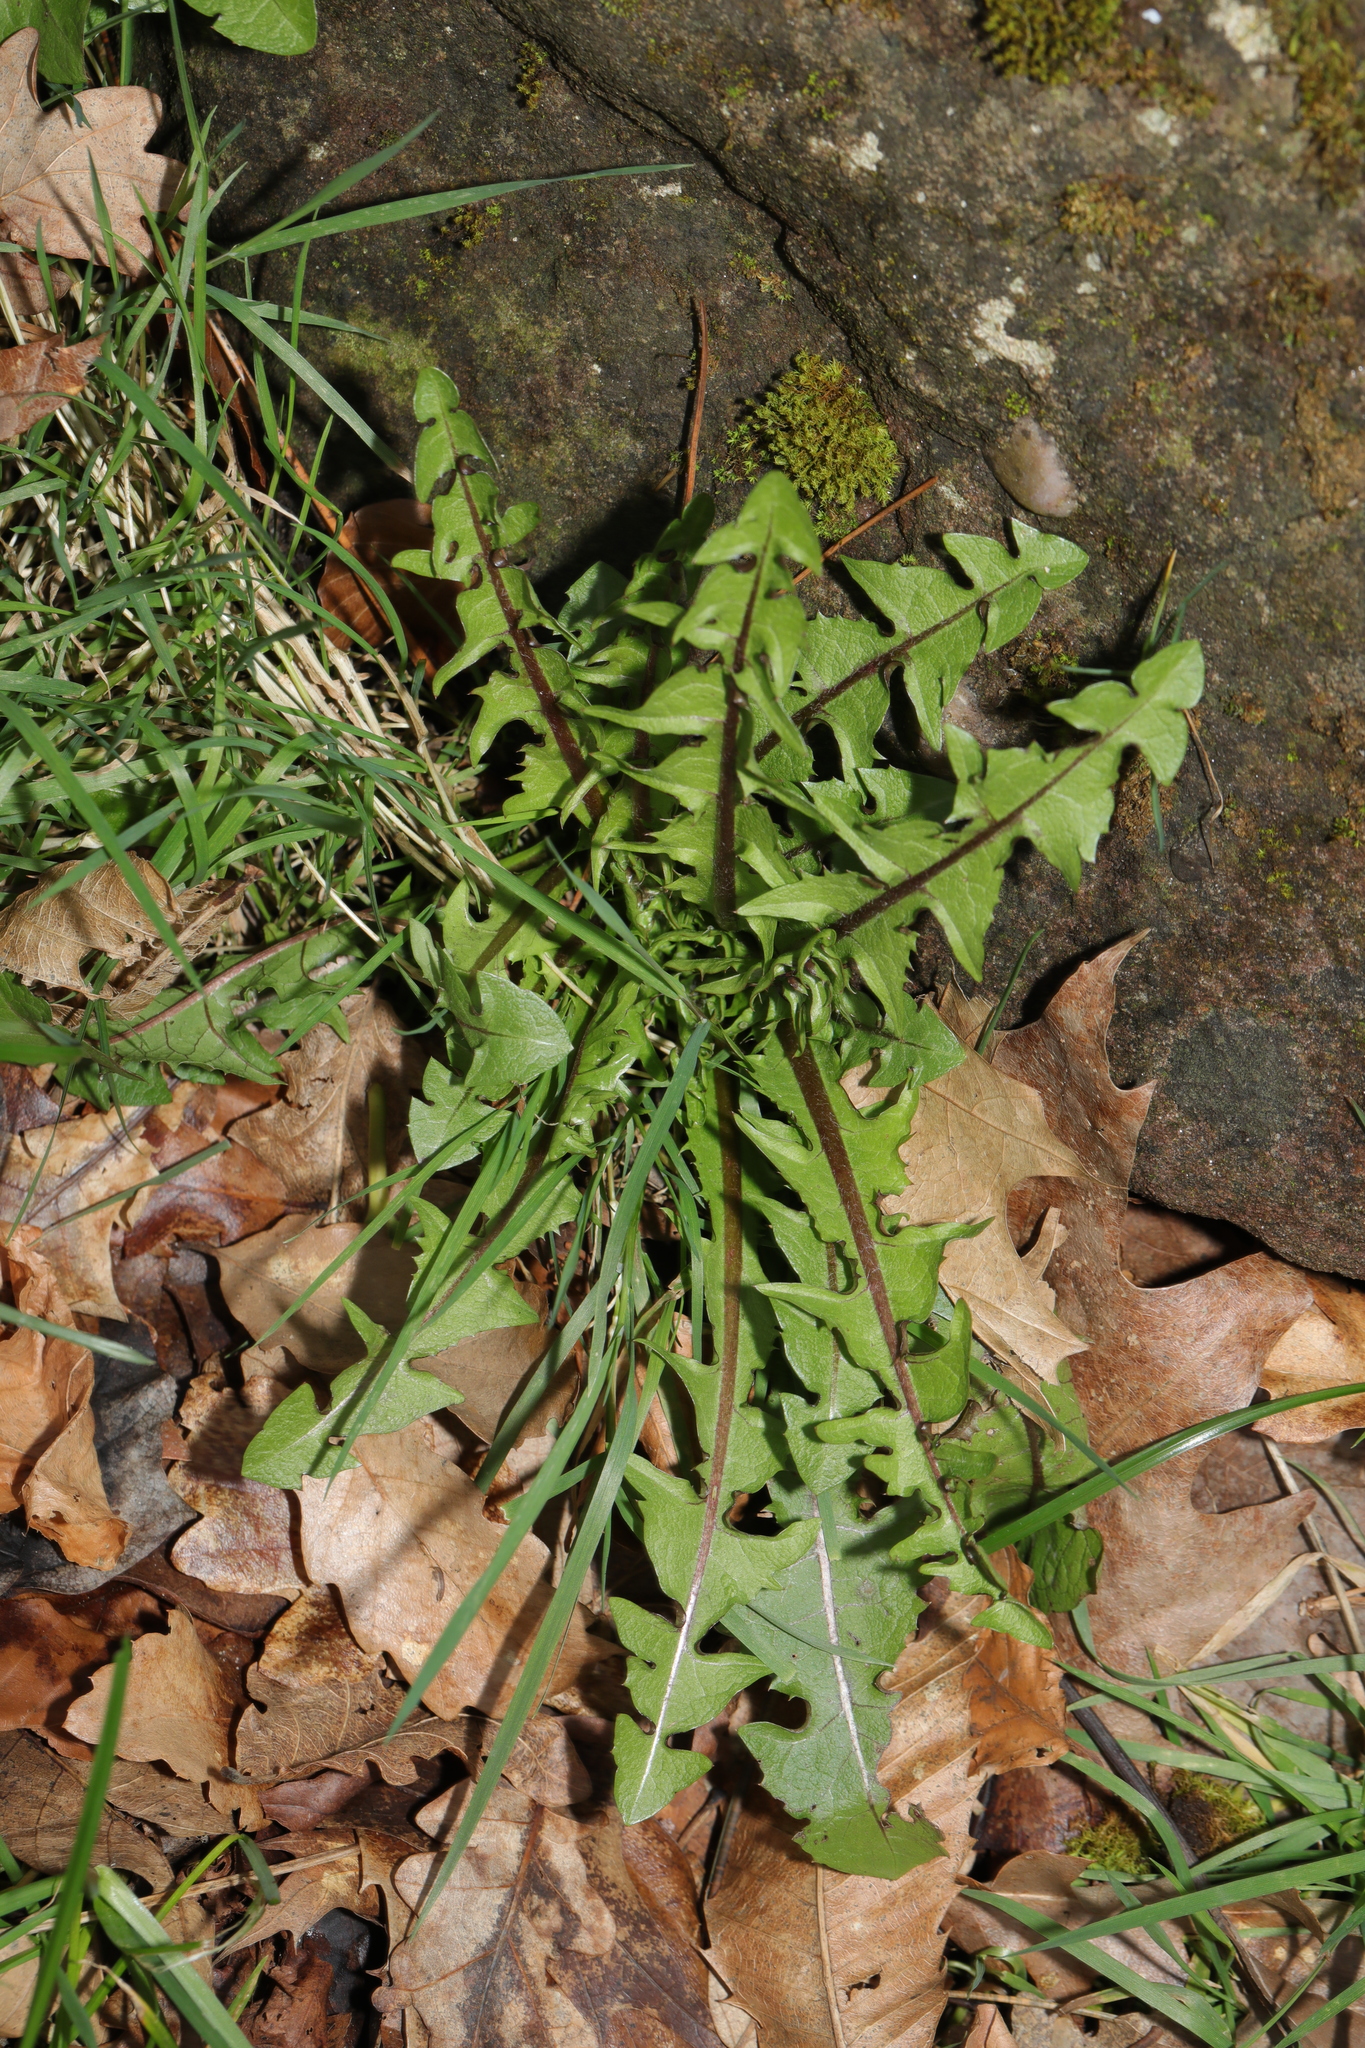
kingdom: Plantae
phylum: Tracheophyta
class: Magnoliopsida
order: Asterales
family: Asteraceae
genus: Taraxacum
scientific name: Taraxacum officinale
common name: Common dandelion
